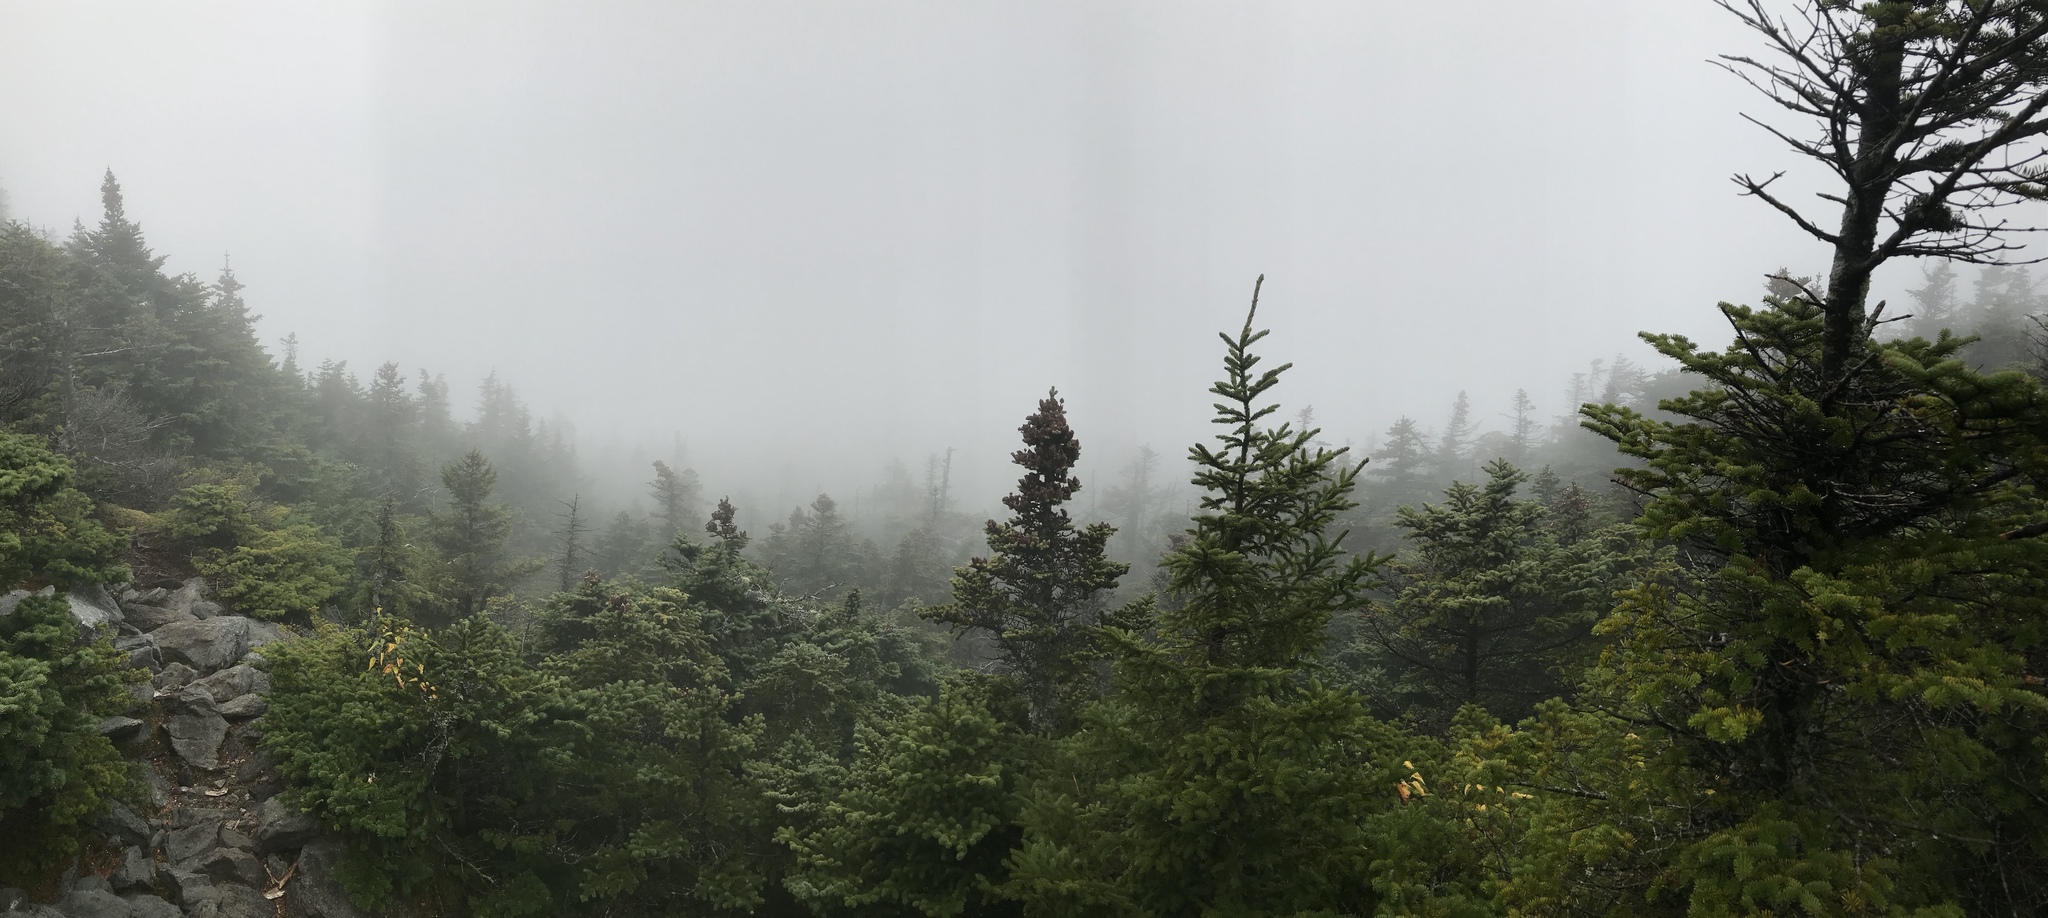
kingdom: Plantae
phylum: Tracheophyta
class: Pinopsida
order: Pinales
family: Pinaceae
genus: Abies
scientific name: Abies balsamea
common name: Balsam fir
